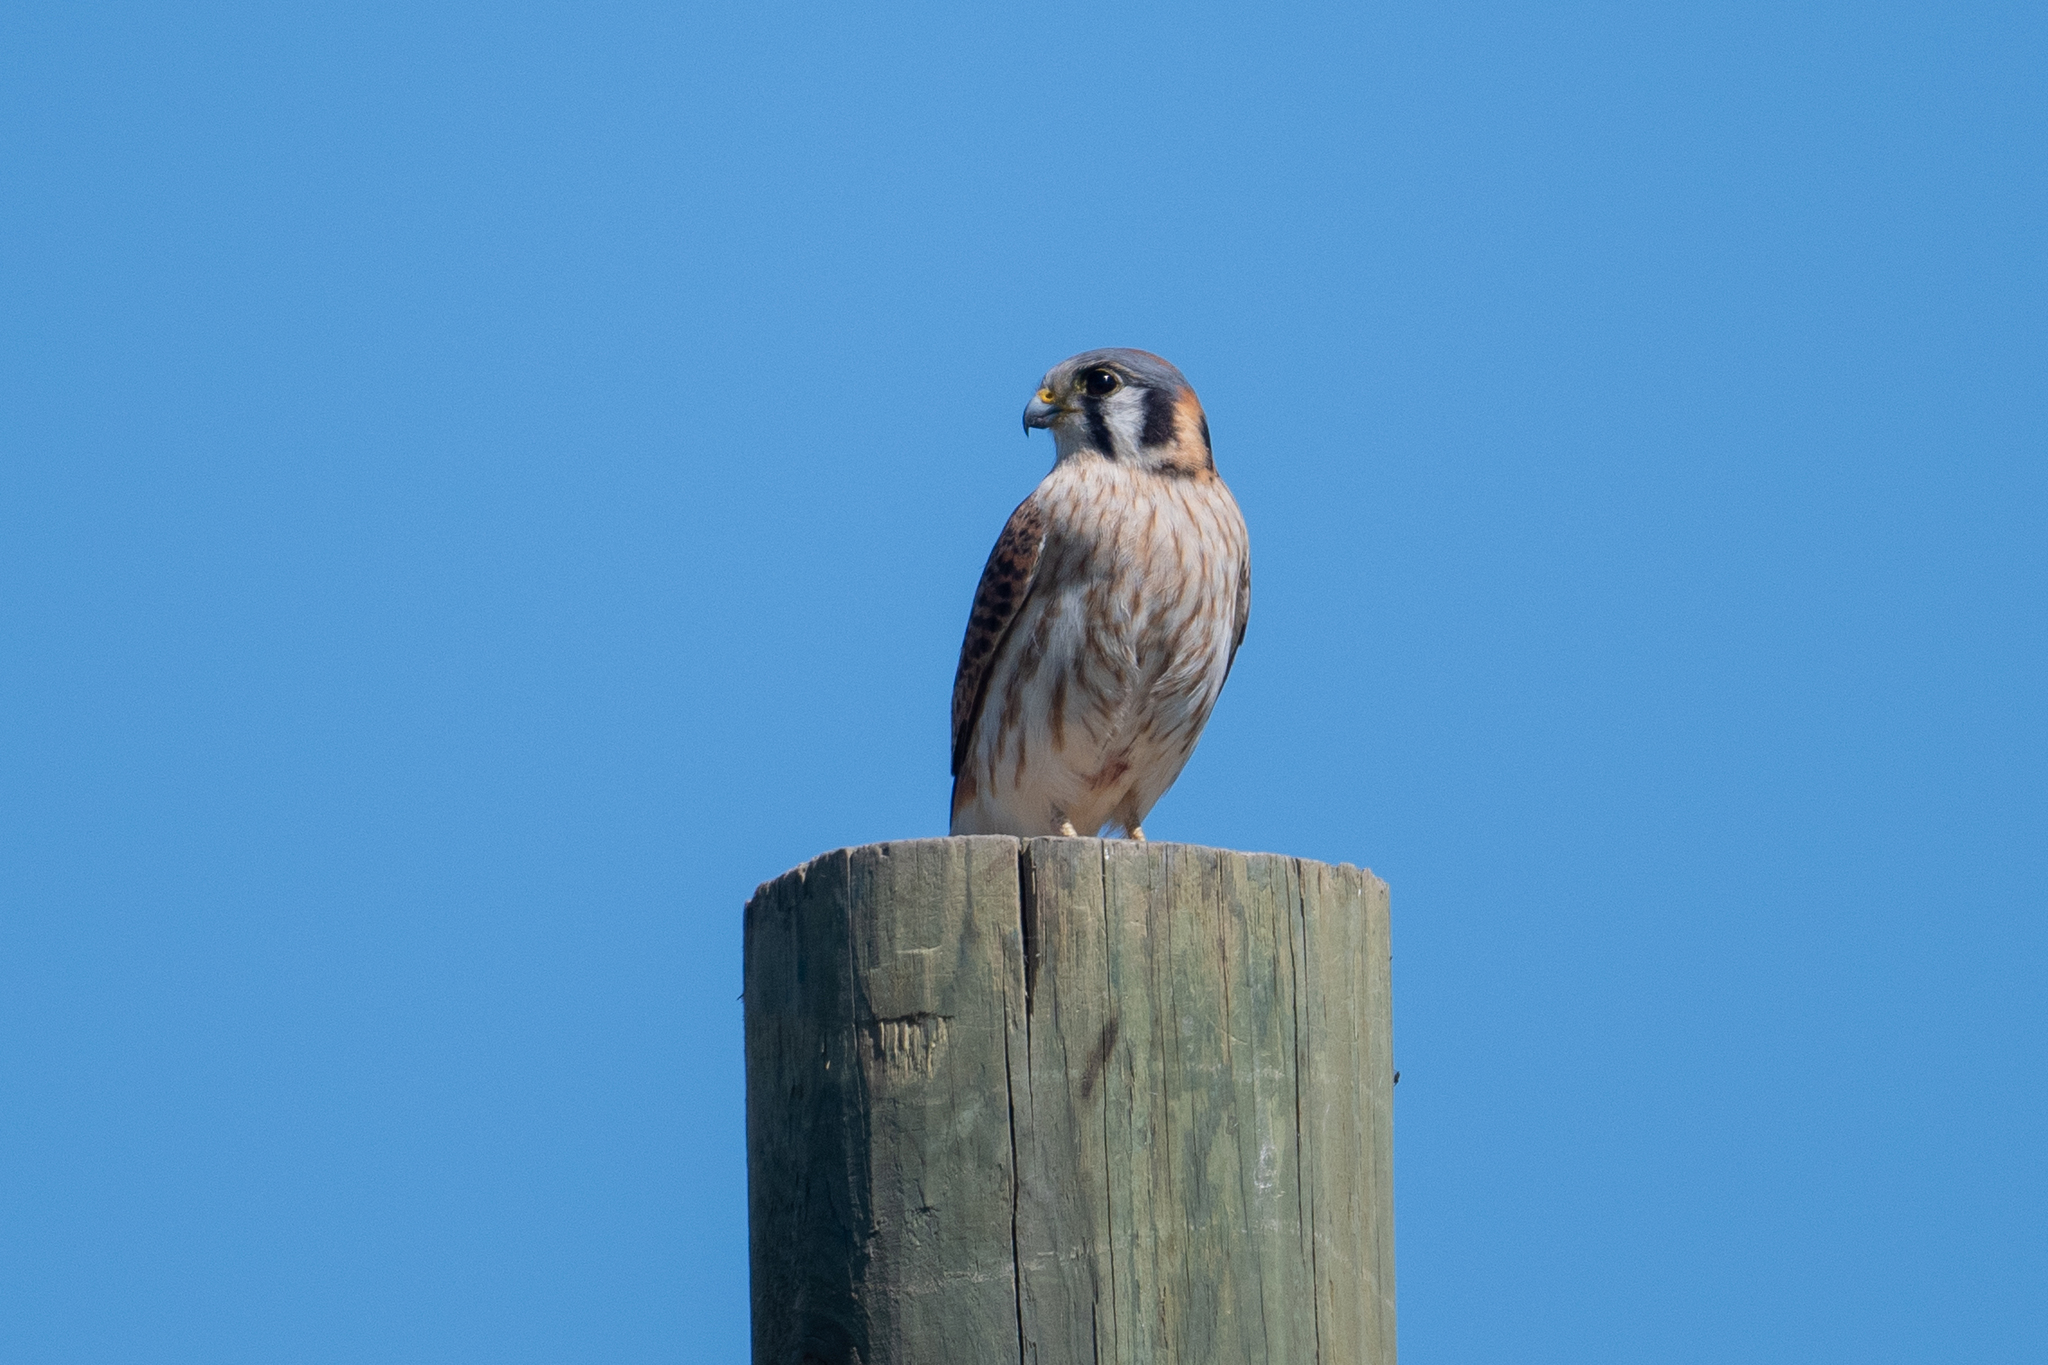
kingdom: Animalia
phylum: Chordata
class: Aves
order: Falconiformes
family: Falconidae
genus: Falco
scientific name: Falco sparverius
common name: American kestrel
